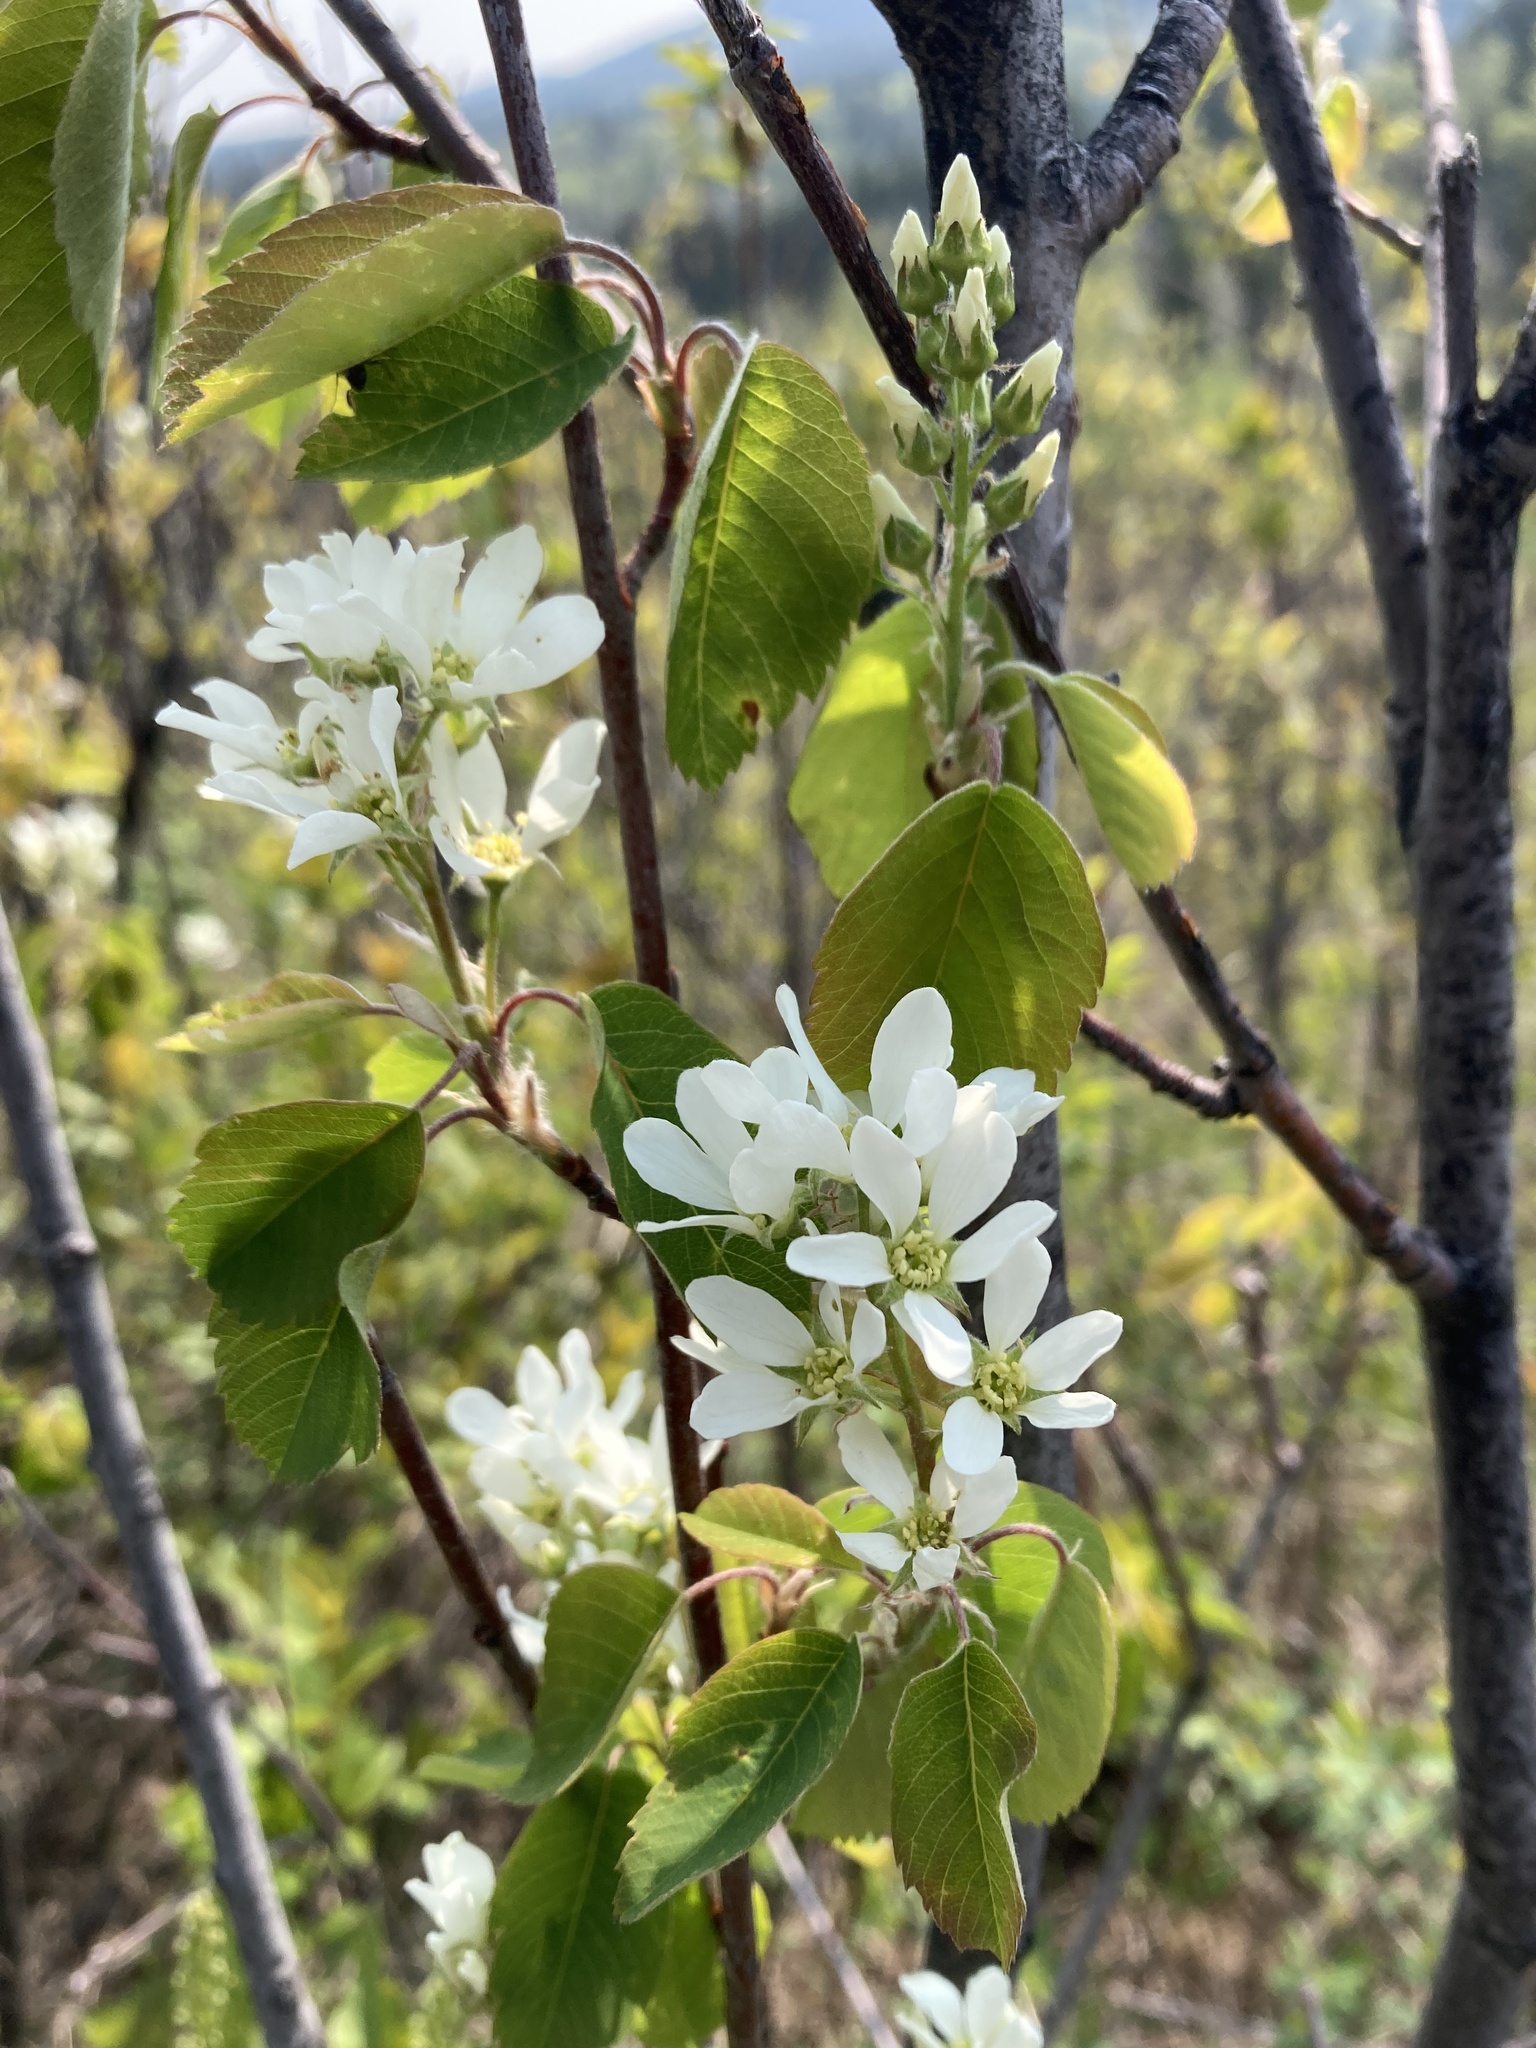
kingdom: Plantae
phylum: Tracheophyta
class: Magnoliopsida
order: Rosales
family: Rosaceae
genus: Amelanchier
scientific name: Amelanchier alnifolia
